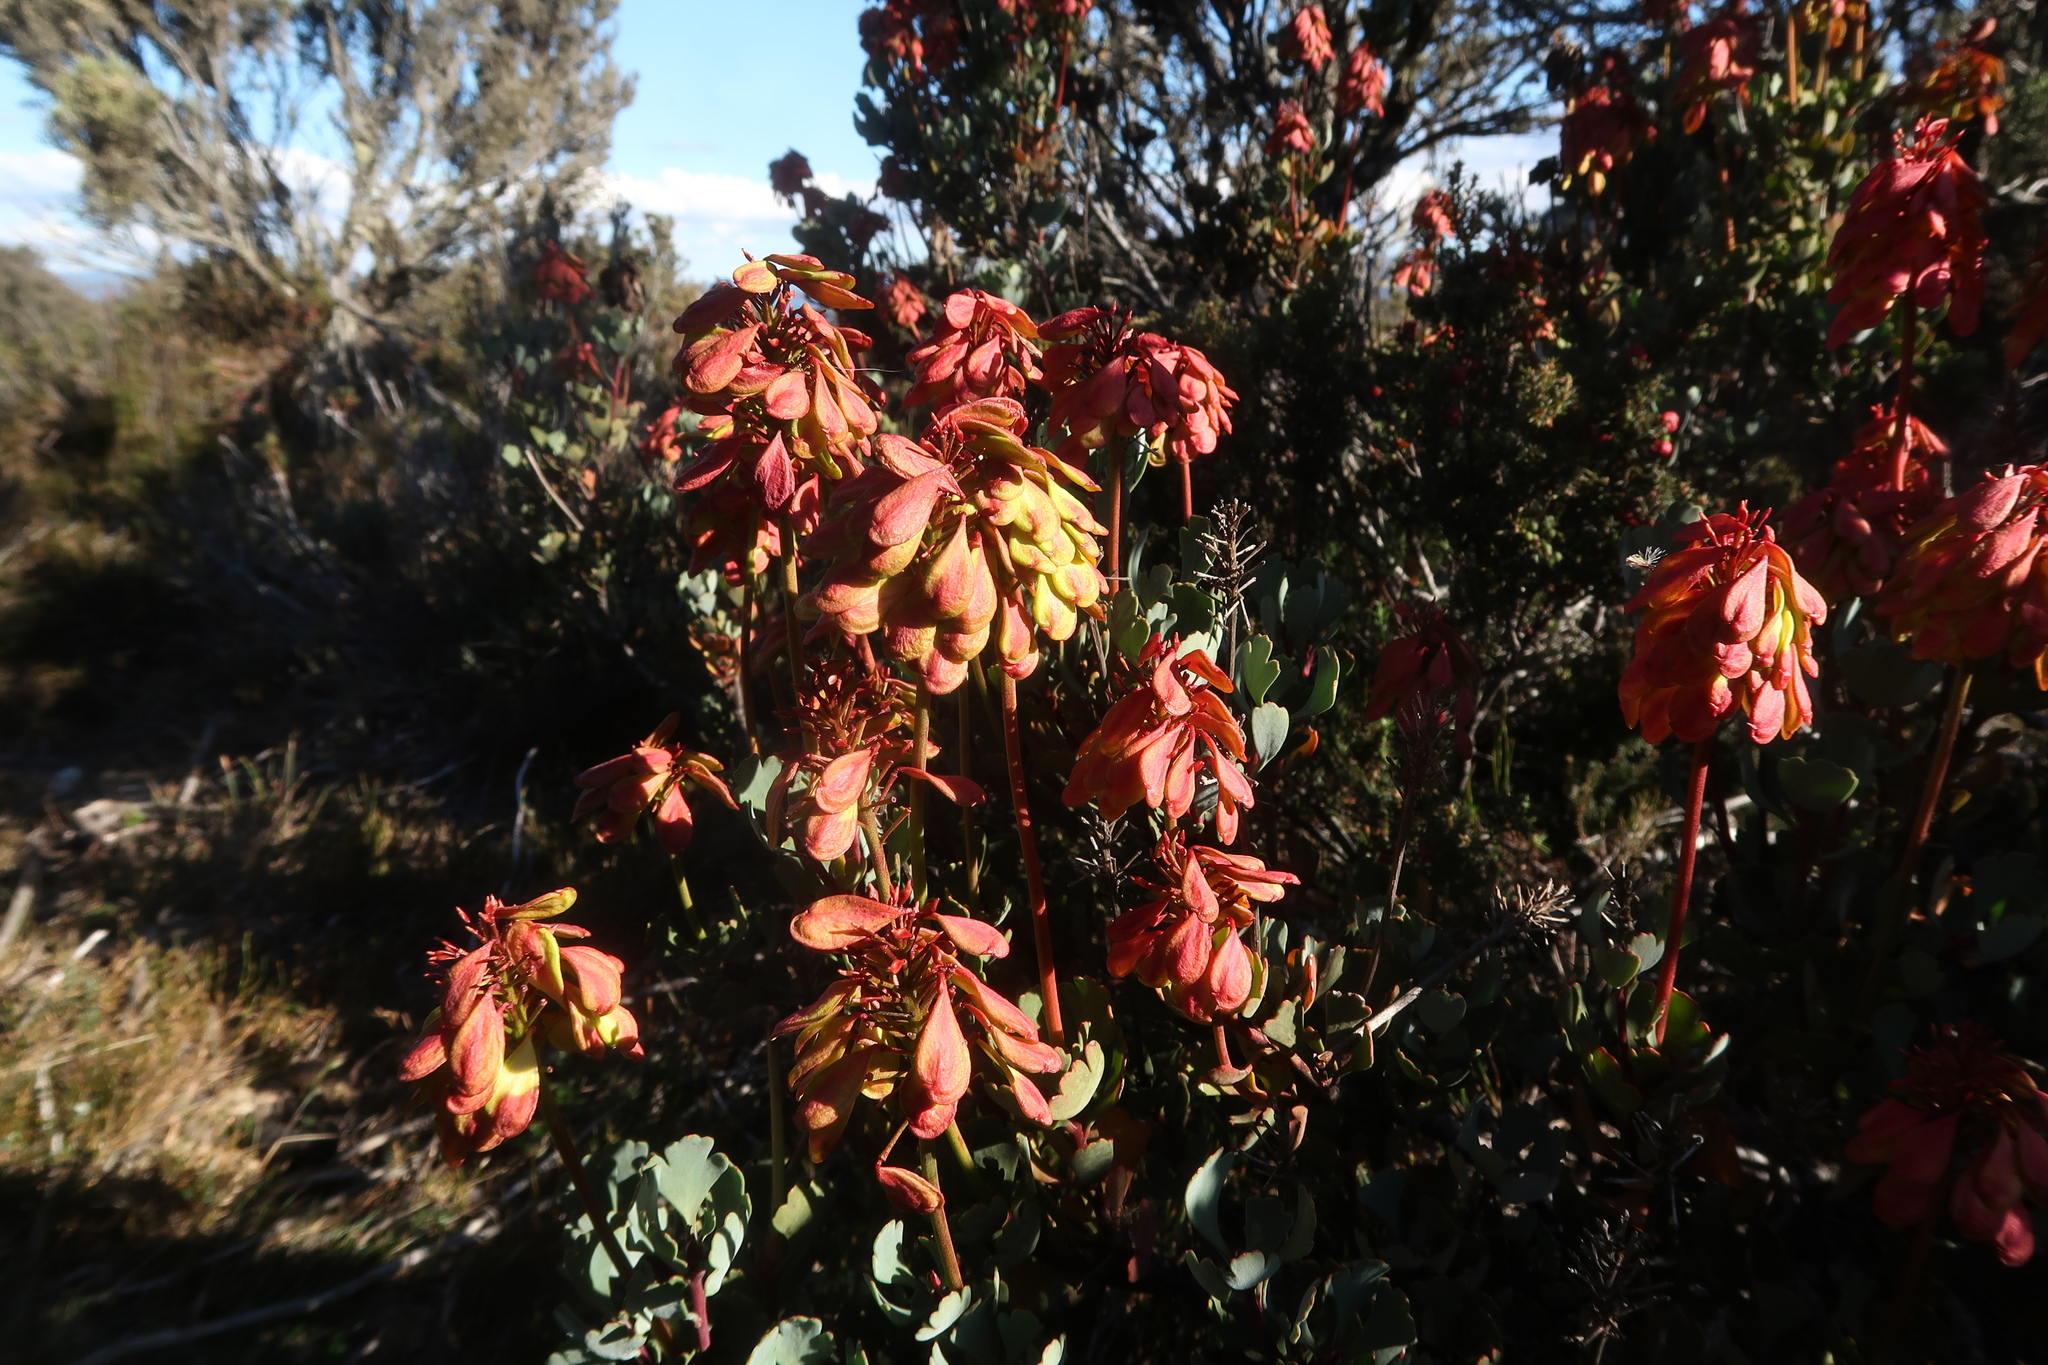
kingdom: Plantae
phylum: Tracheophyta
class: Magnoliopsida
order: Proteales
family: Proteaceae
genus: Bellendena
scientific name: Bellendena montana
